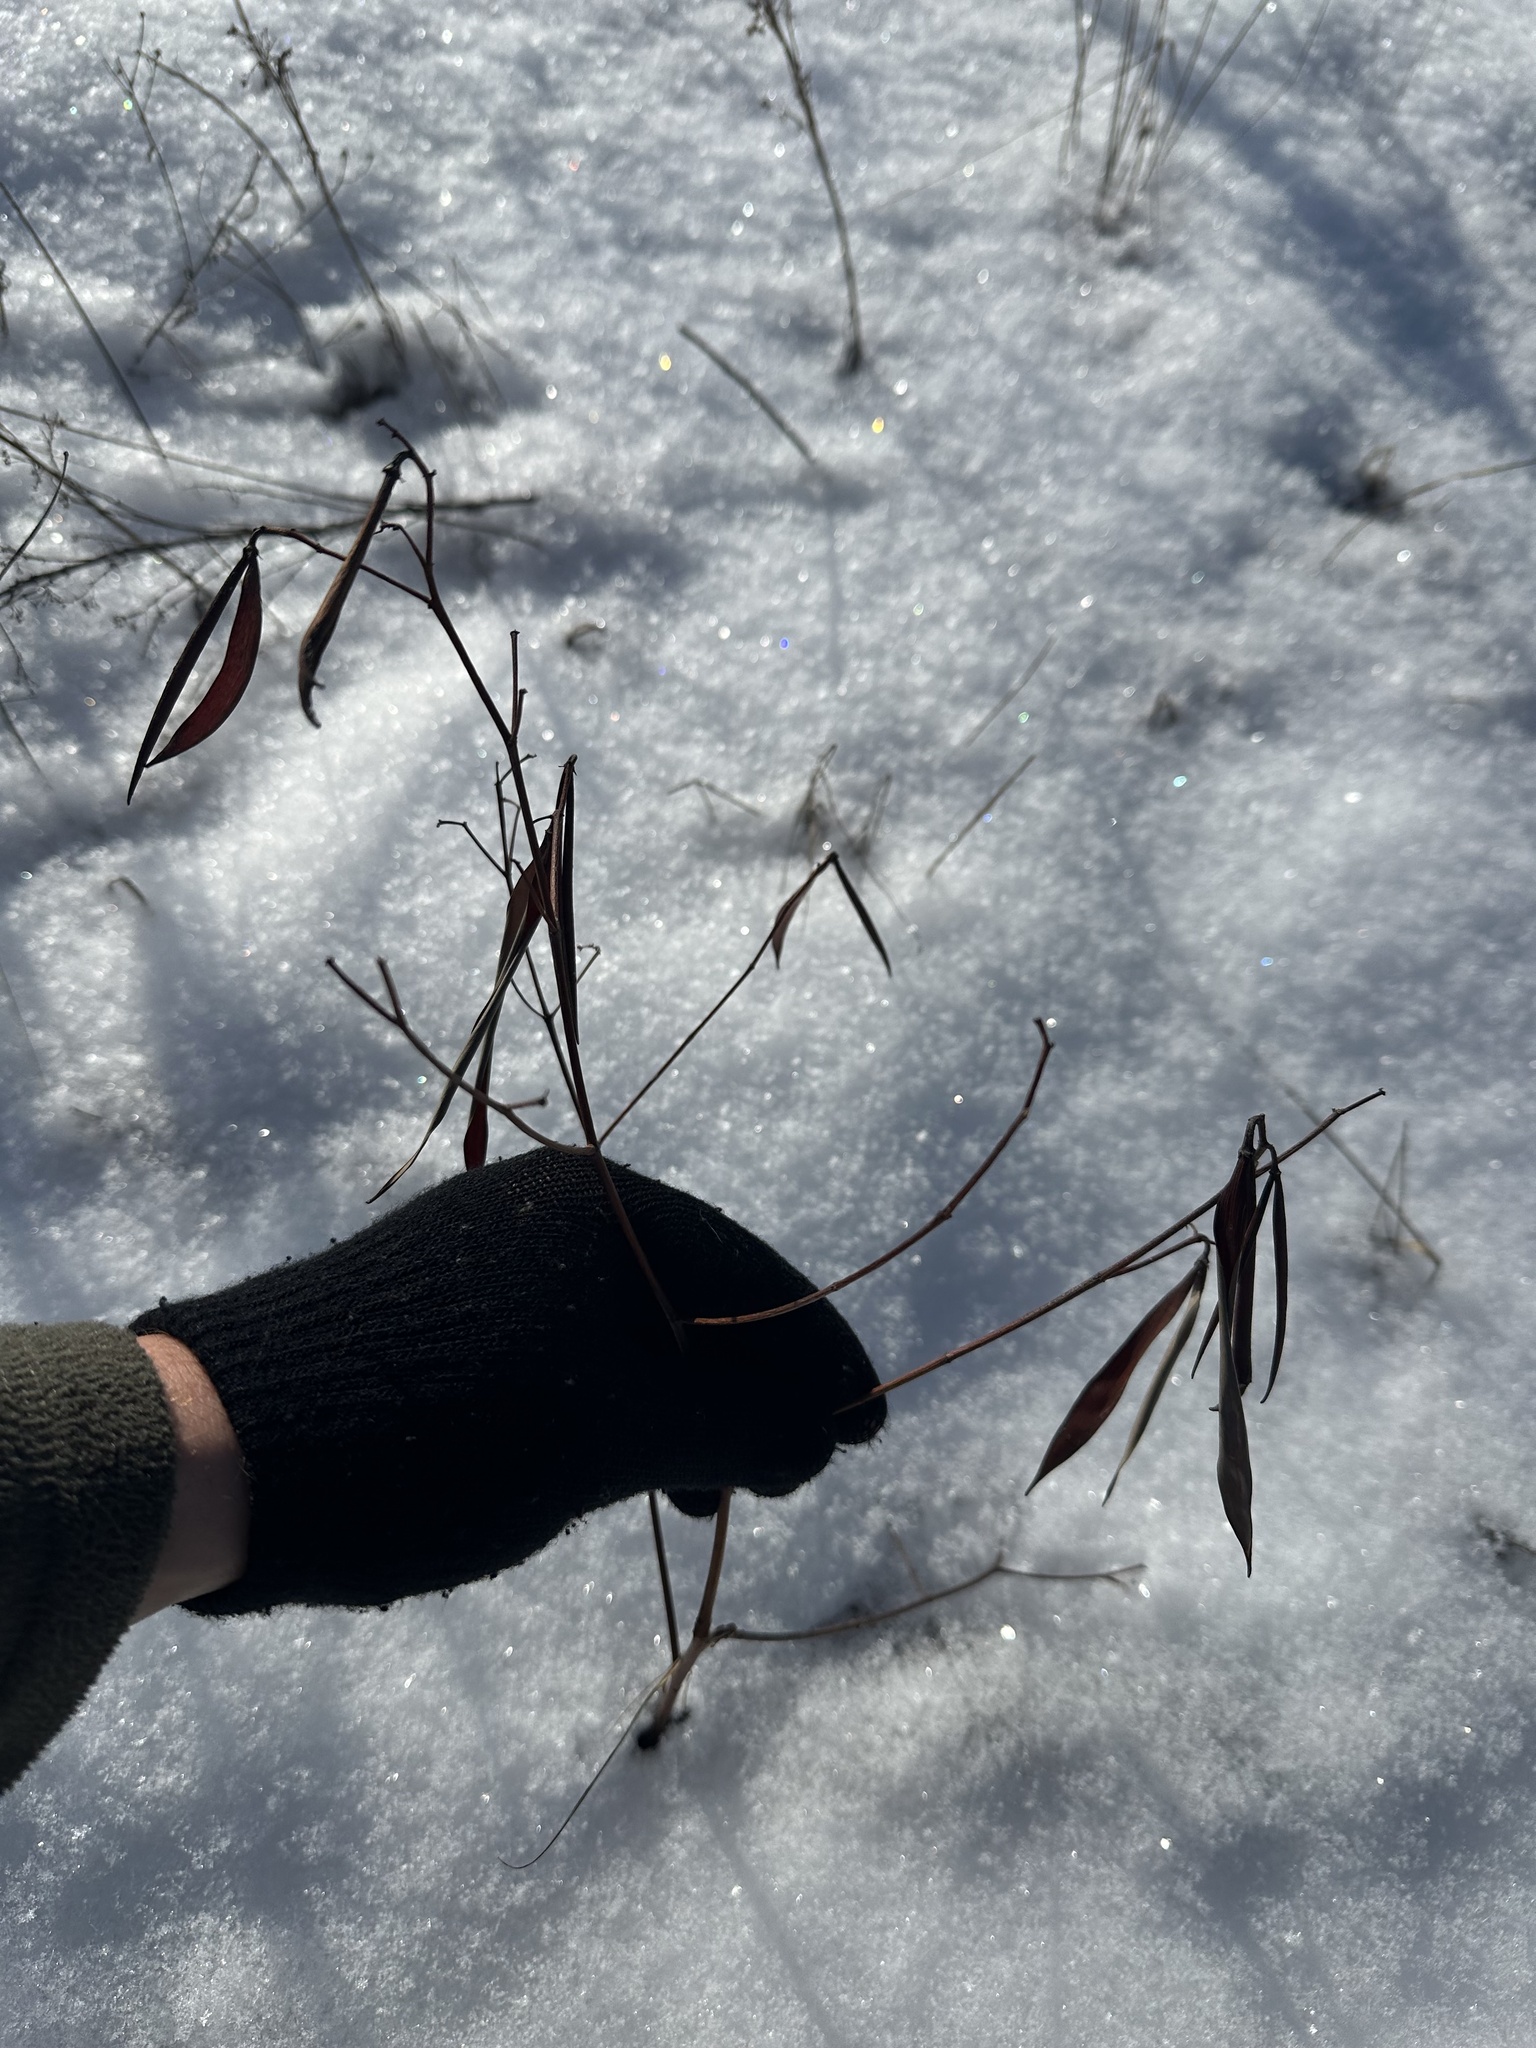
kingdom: Plantae
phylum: Tracheophyta
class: Magnoliopsida
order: Gentianales
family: Apocynaceae
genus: Apocynum
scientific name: Apocynum androsaemifolium
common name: Spreading dogbane
